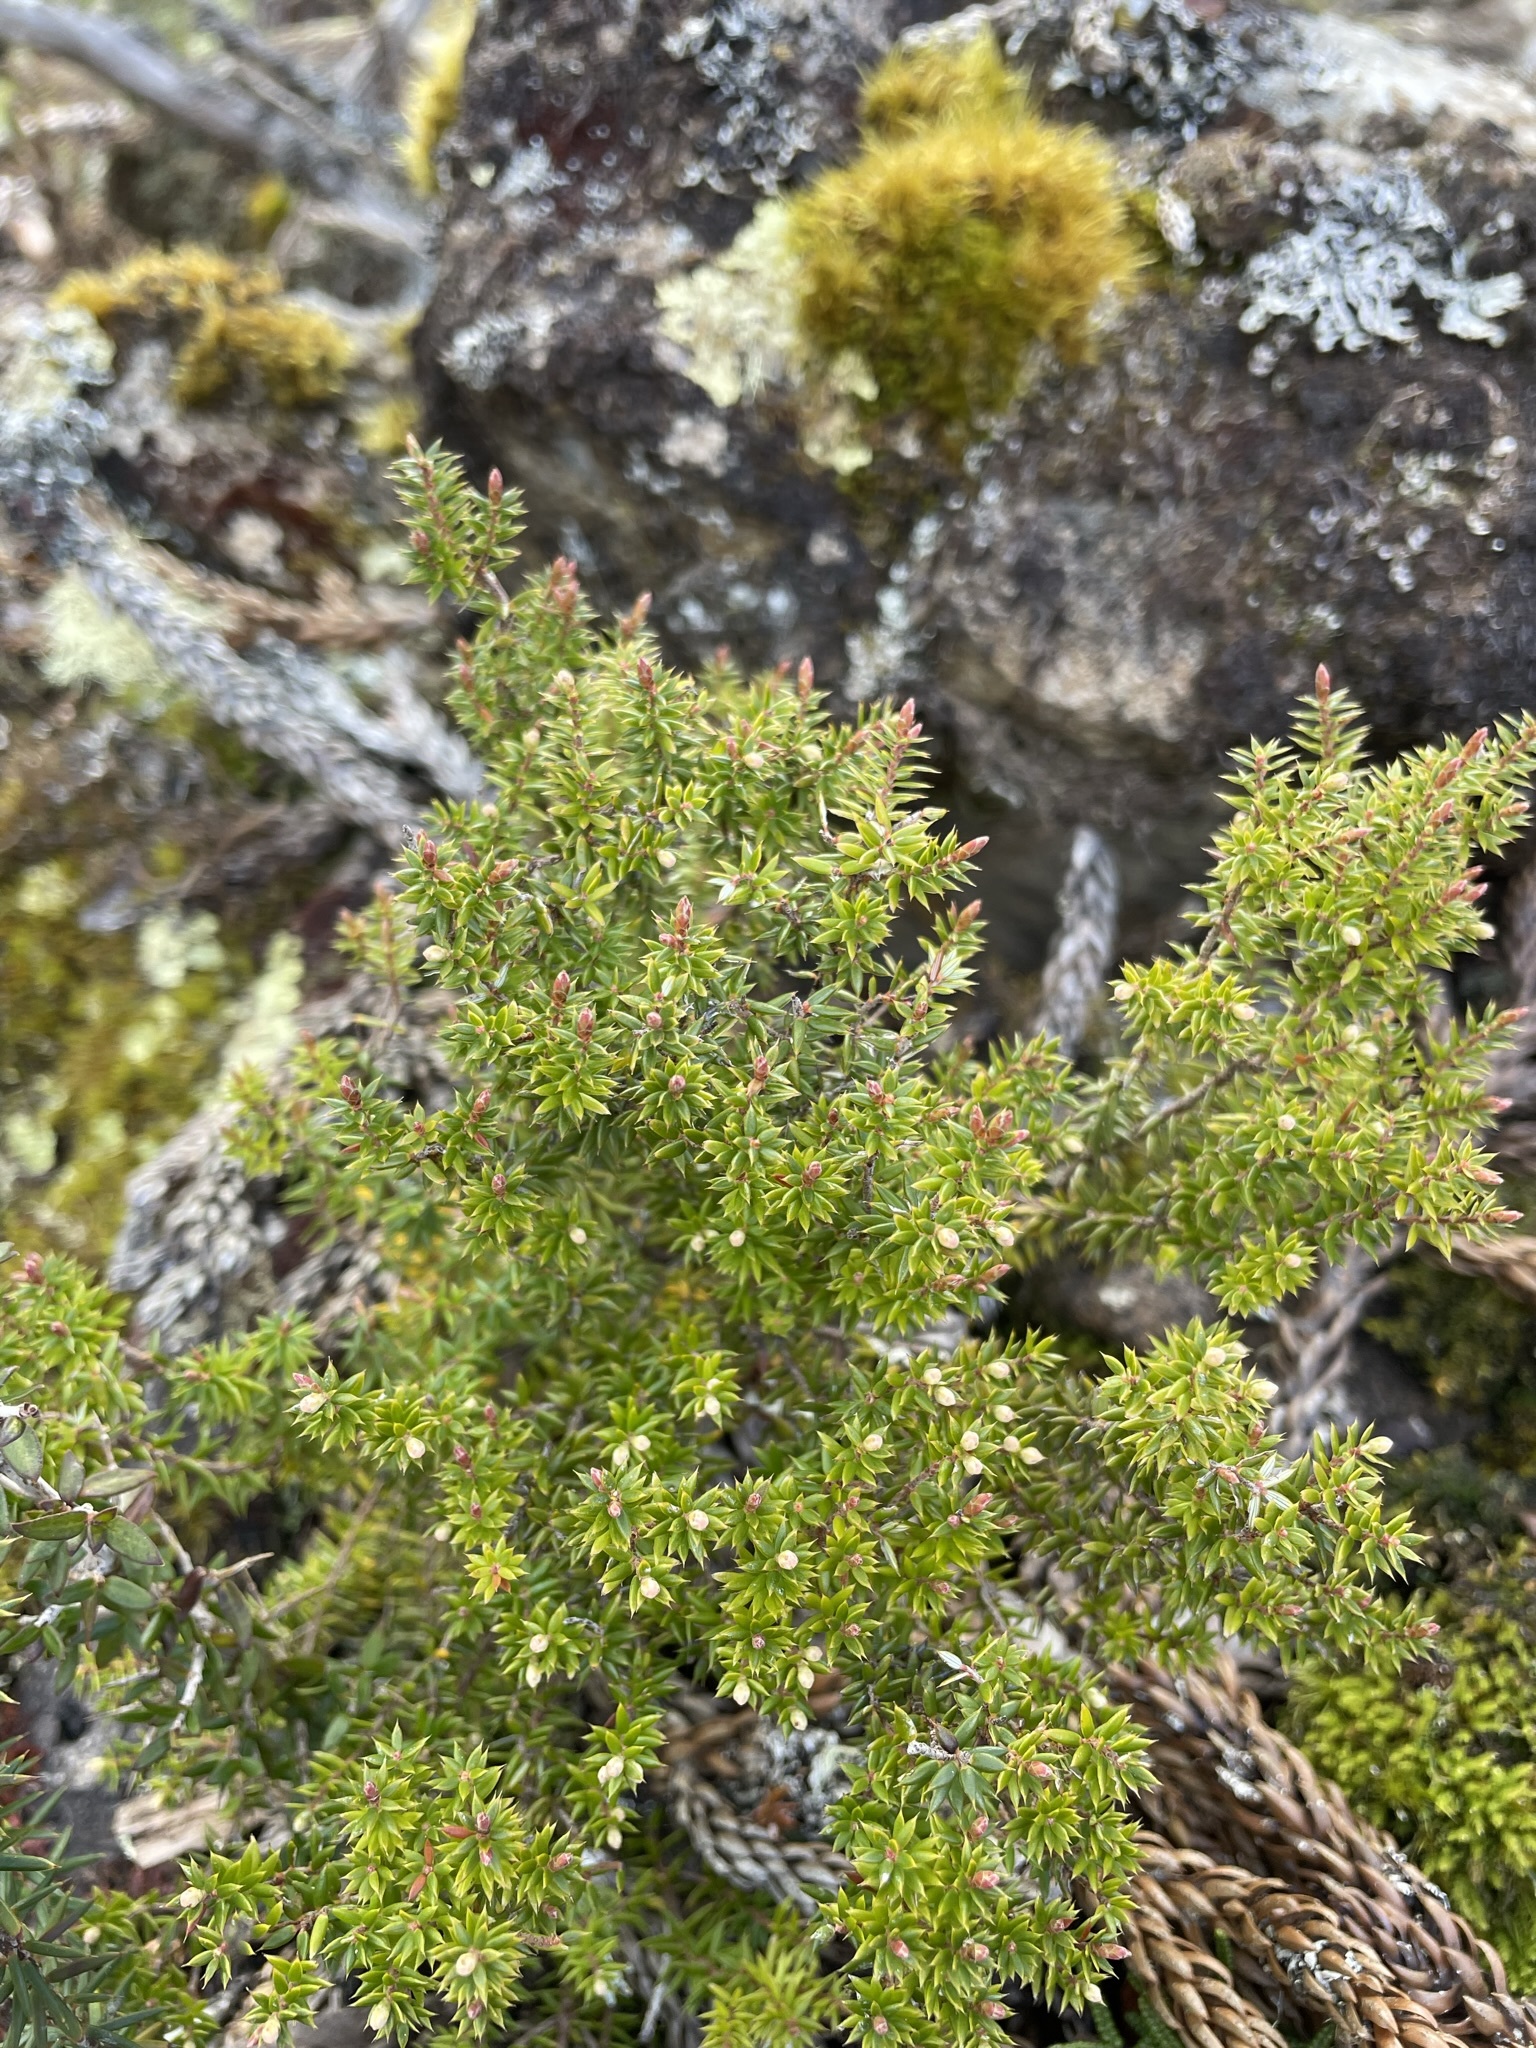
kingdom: Plantae
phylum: Tracheophyta
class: Magnoliopsida
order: Ericales
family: Ericaceae
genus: Leptecophylla
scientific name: Leptecophylla parvifolia
